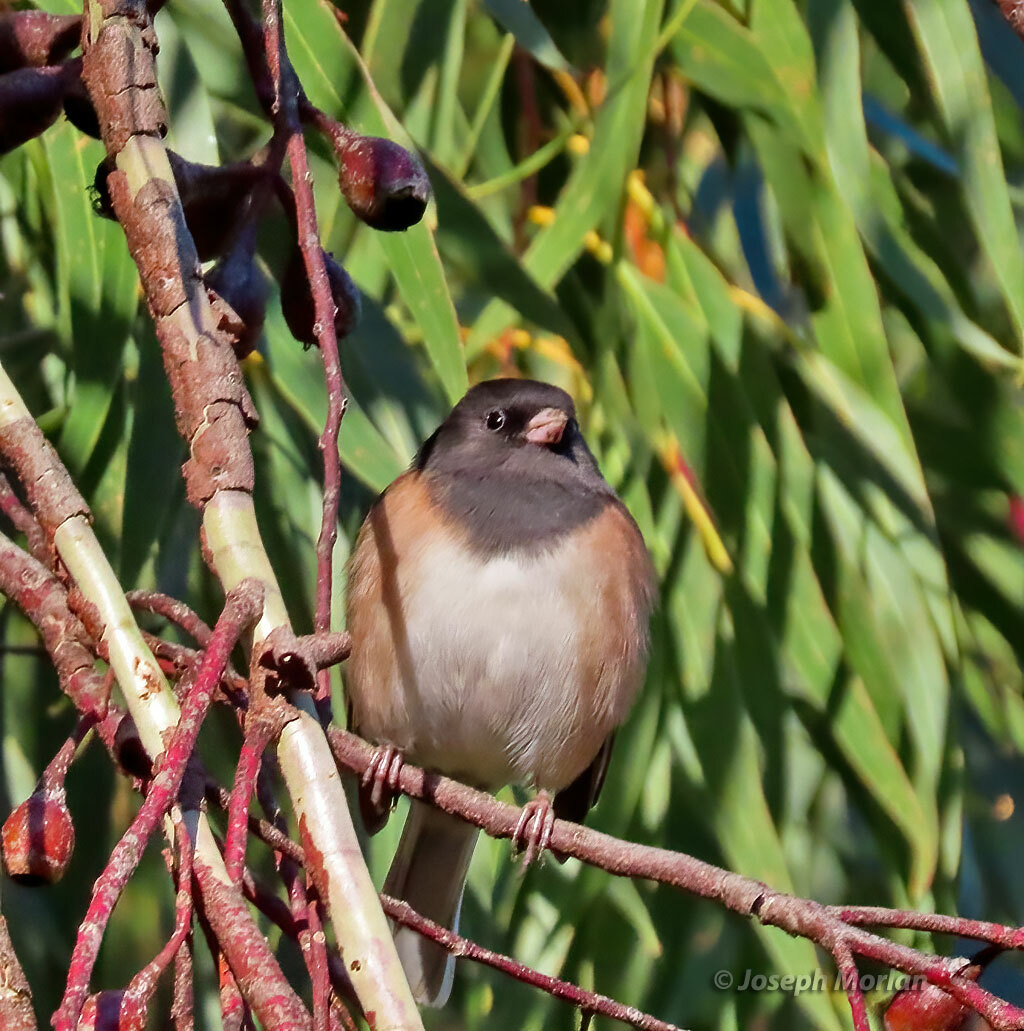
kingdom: Animalia
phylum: Chordata
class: Aves
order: Passeriformes
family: Passerellidae
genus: Junco
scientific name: Junco hyemalis
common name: Dark-eyed junco
